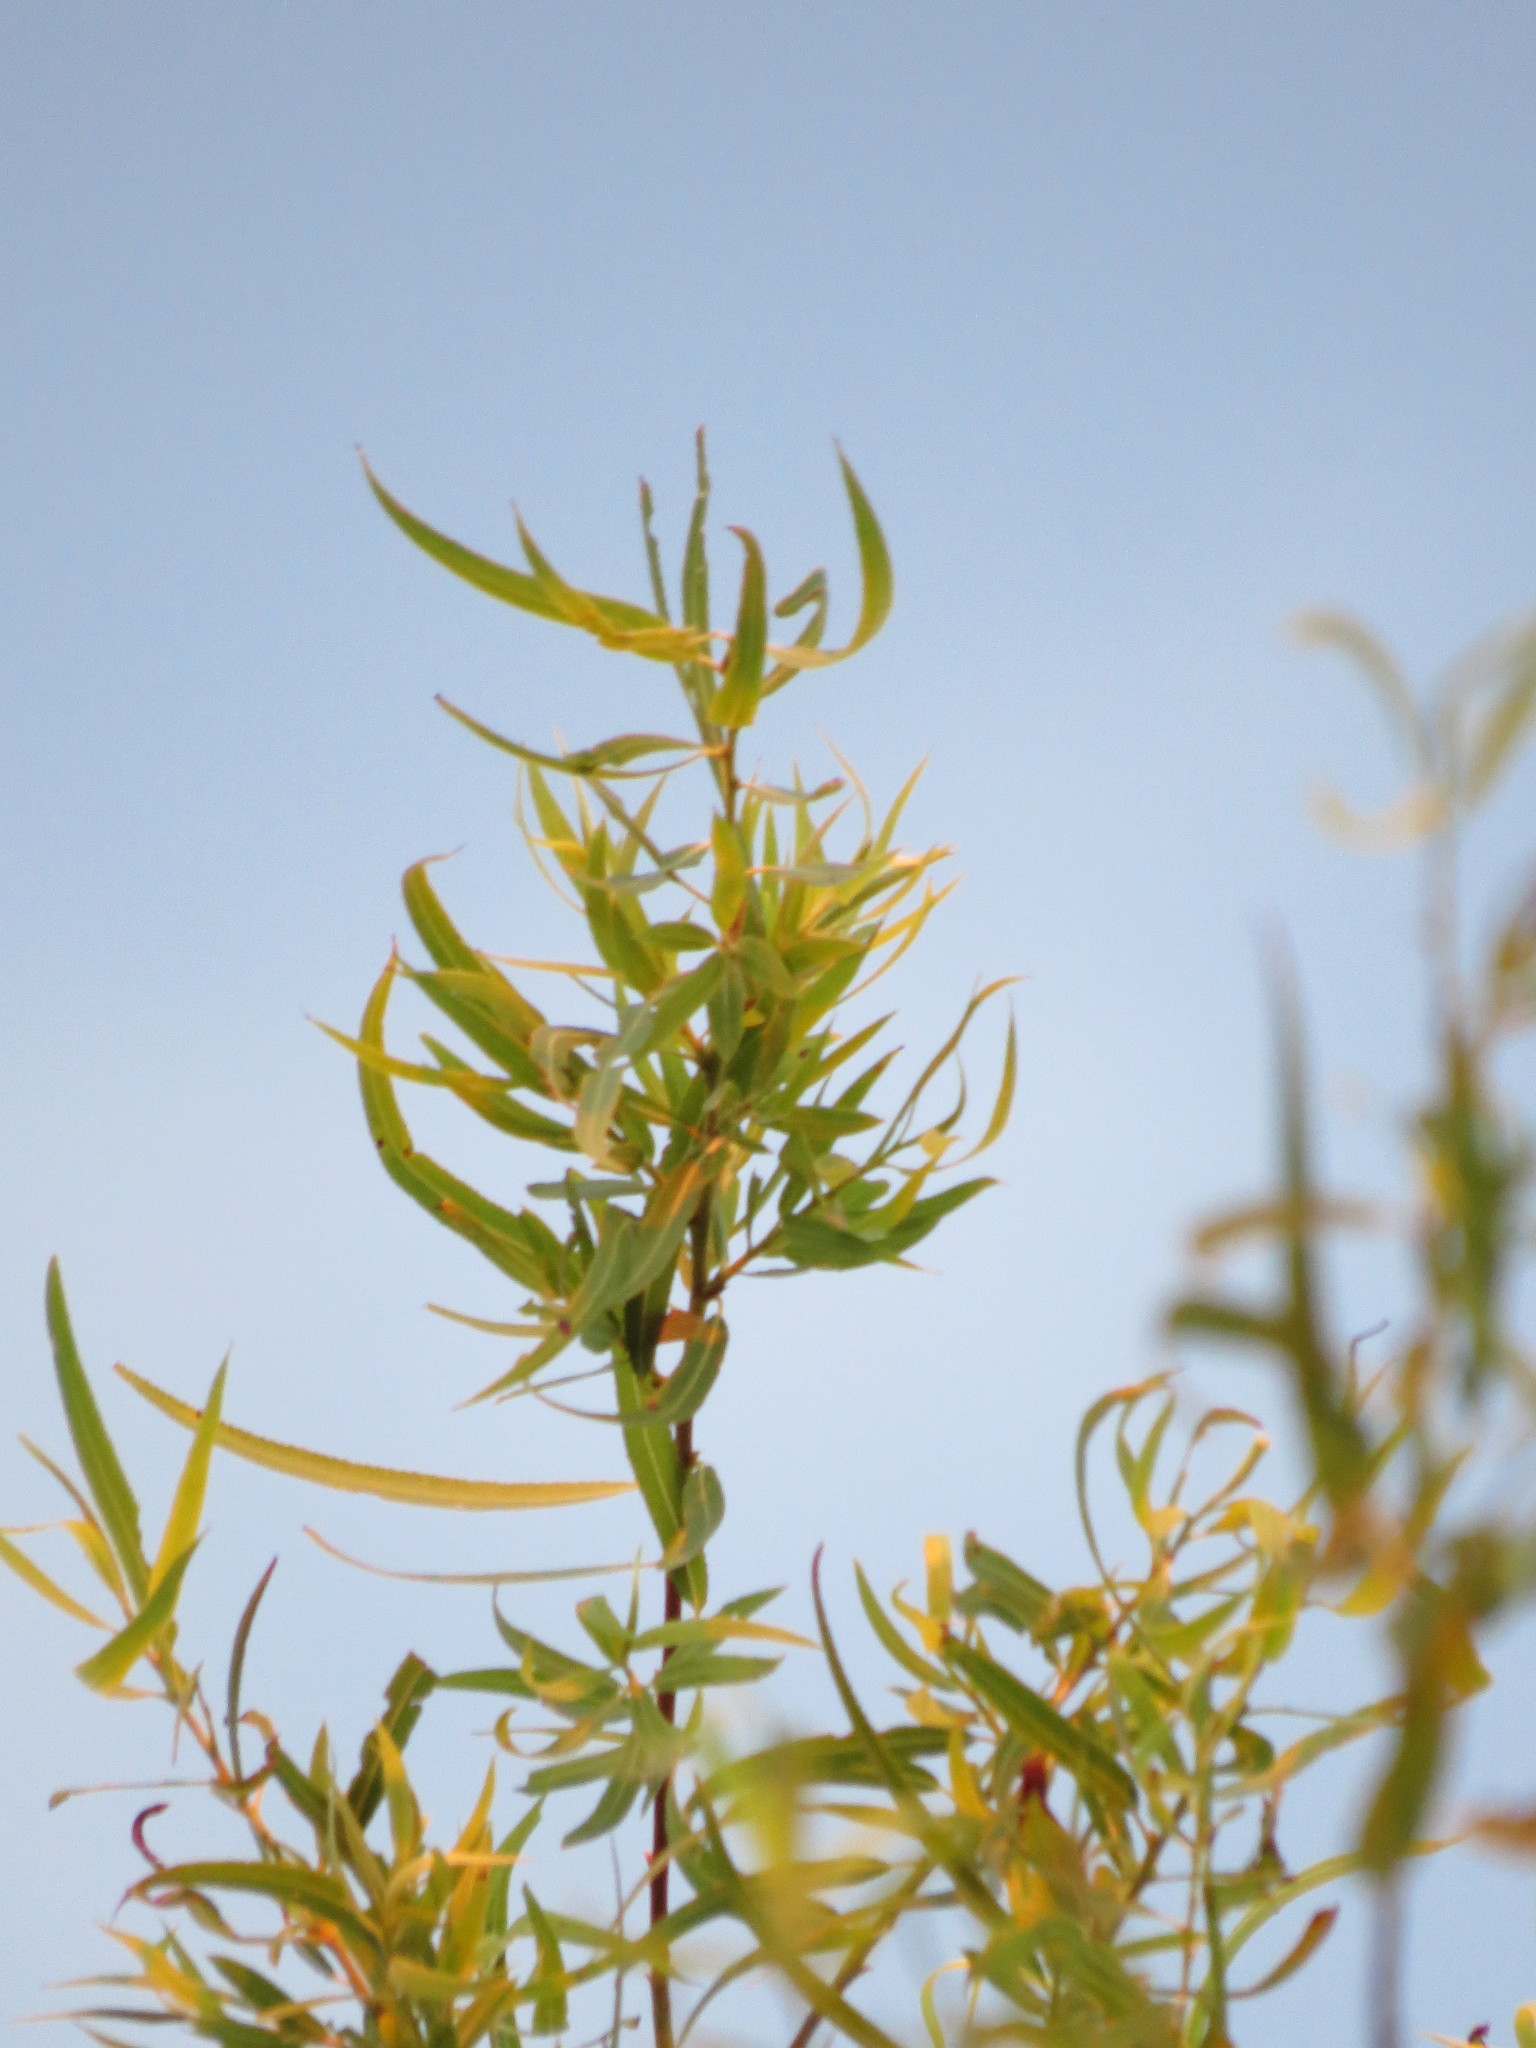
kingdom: Plantae
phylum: Tracheophyta
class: Magnoliopsida
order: Malpighiales
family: Salicaceae
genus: Salix
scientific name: Salix humboldtiana
